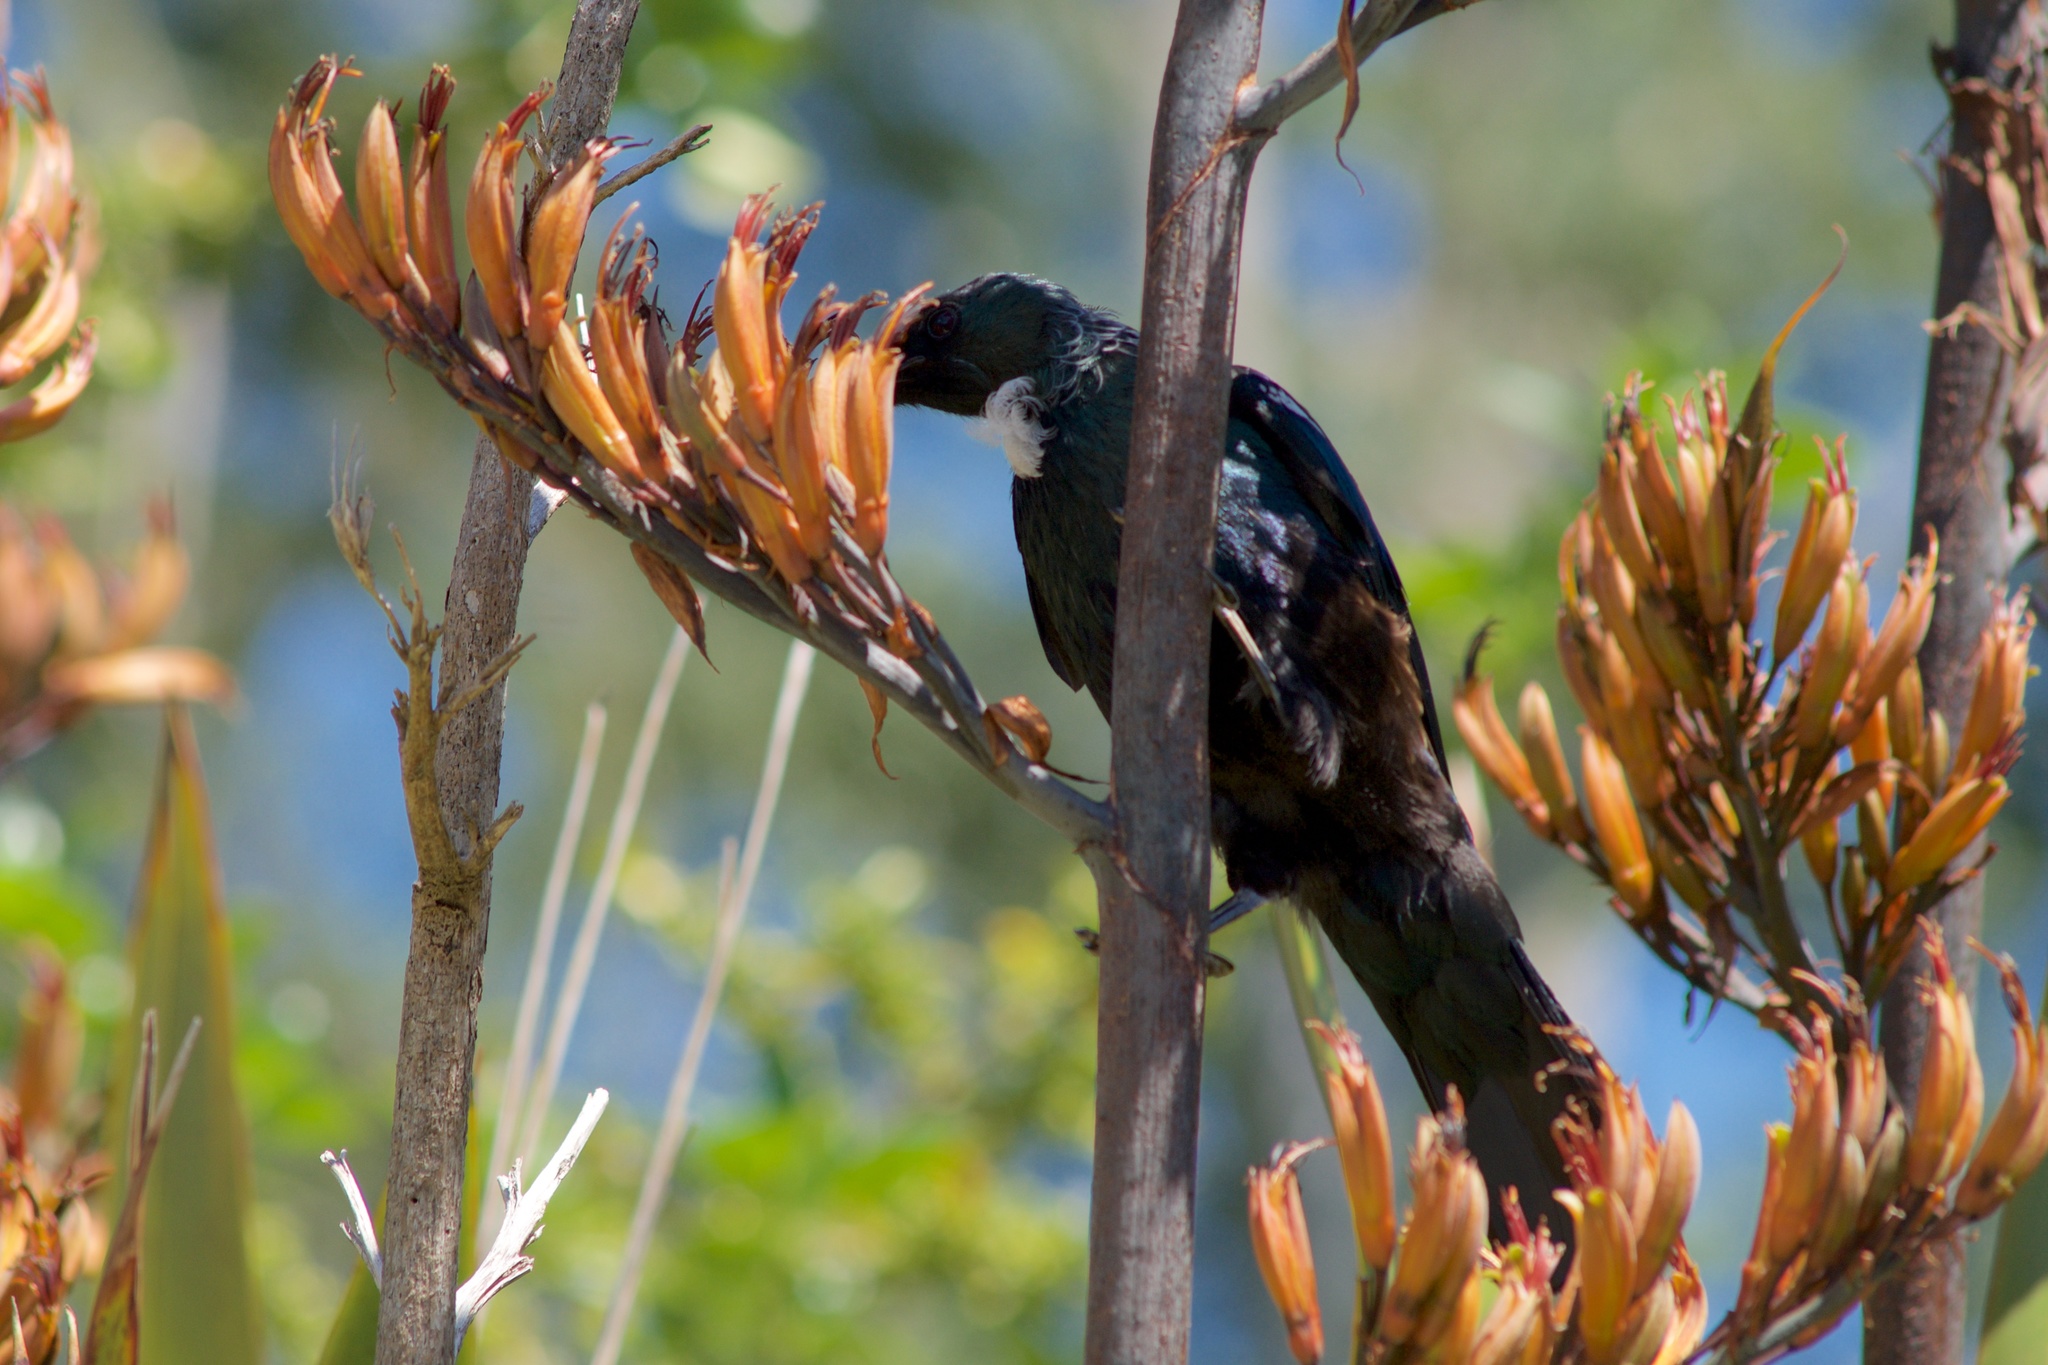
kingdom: Animalia
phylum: Chordata
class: Aves
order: Passeriformes
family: Meliphagidae
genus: Prosthemadera
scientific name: Prosthemadera novaeseelandiae
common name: Tui
